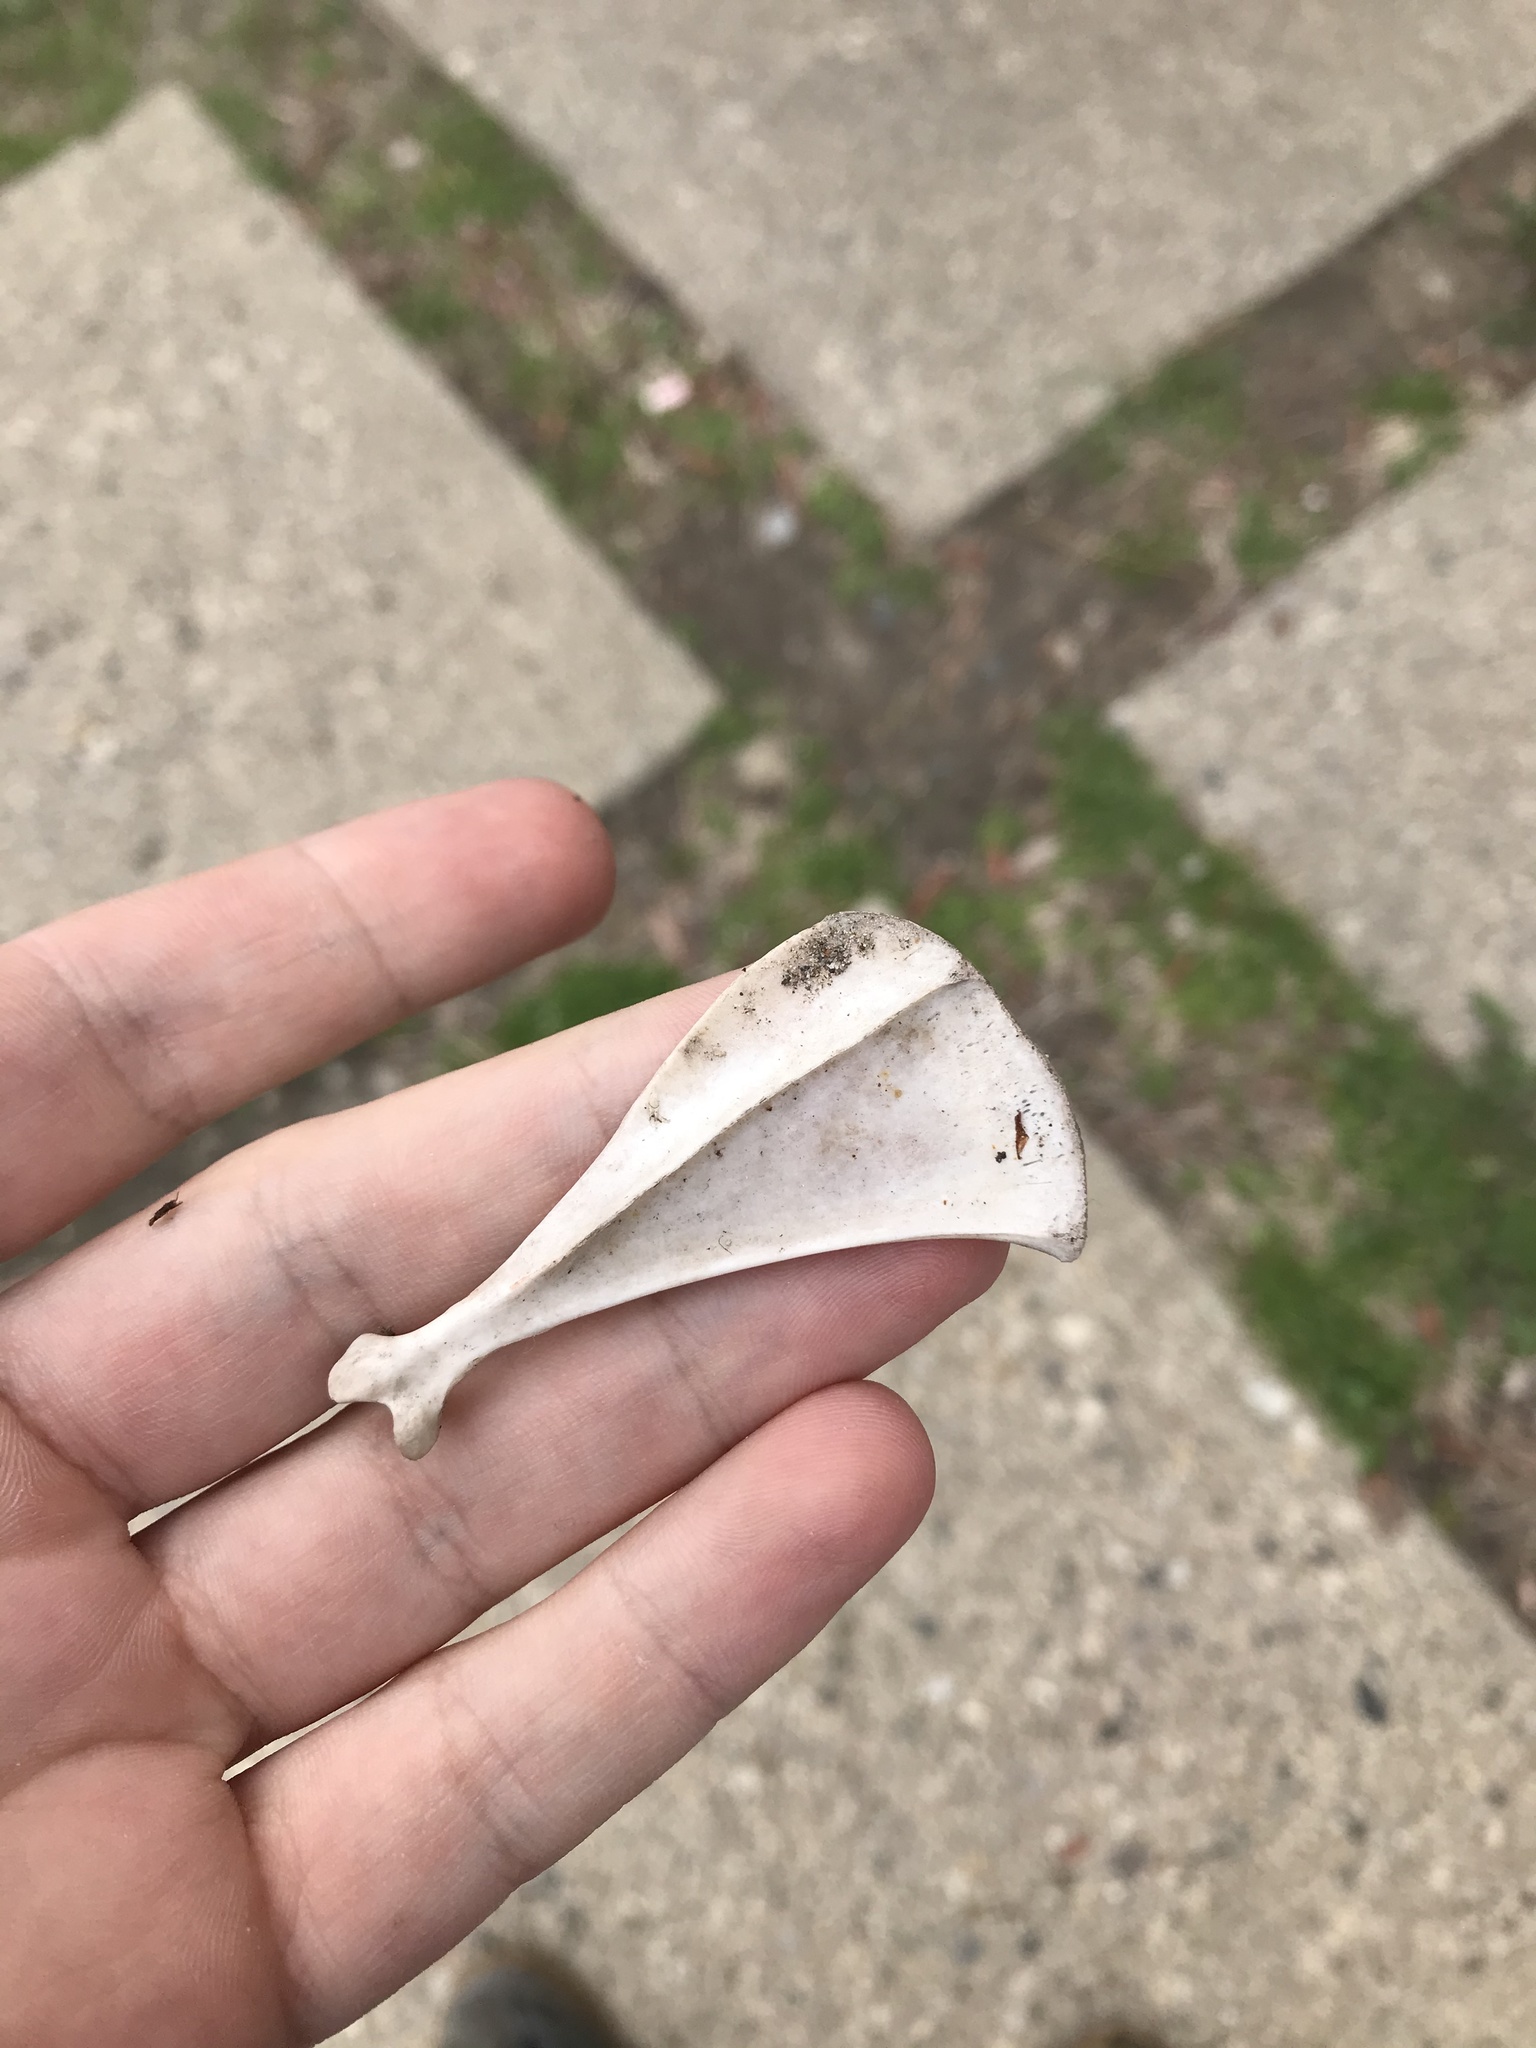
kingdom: Animalia
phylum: Chordata
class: Mammalia
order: Lagomorpha
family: Leporidae
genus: Sylvilagus
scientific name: Sylvilagus floridanus
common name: Eastern cottontail
